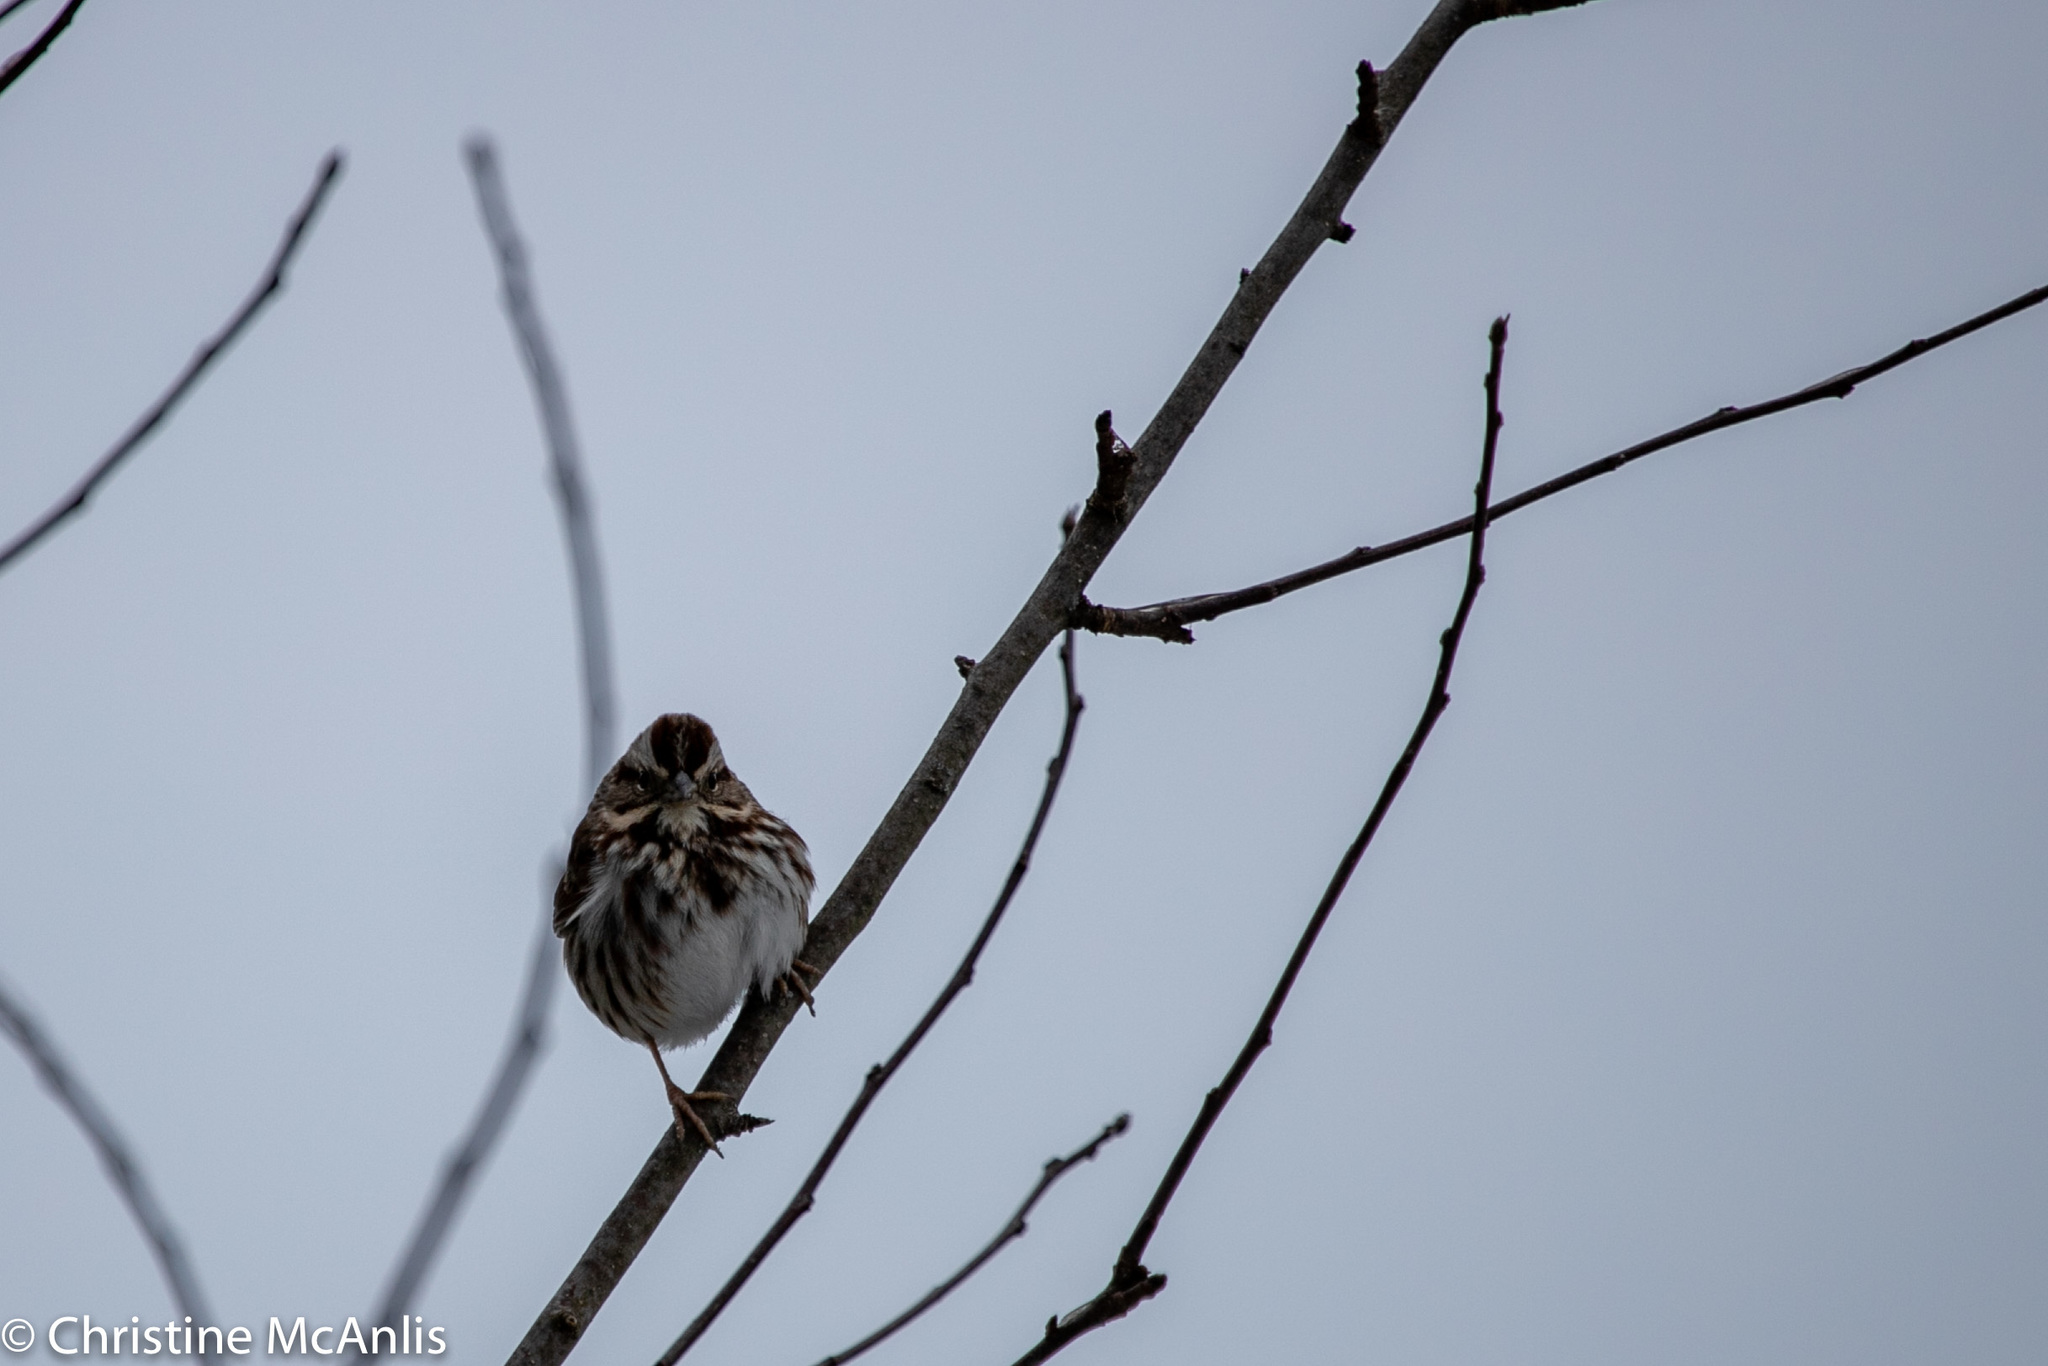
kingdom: Animalia
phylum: Chordata
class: Aves
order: Passeriformes
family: Passerellidae
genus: Melospiza
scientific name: Melospiza melodia
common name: Song sparrow
